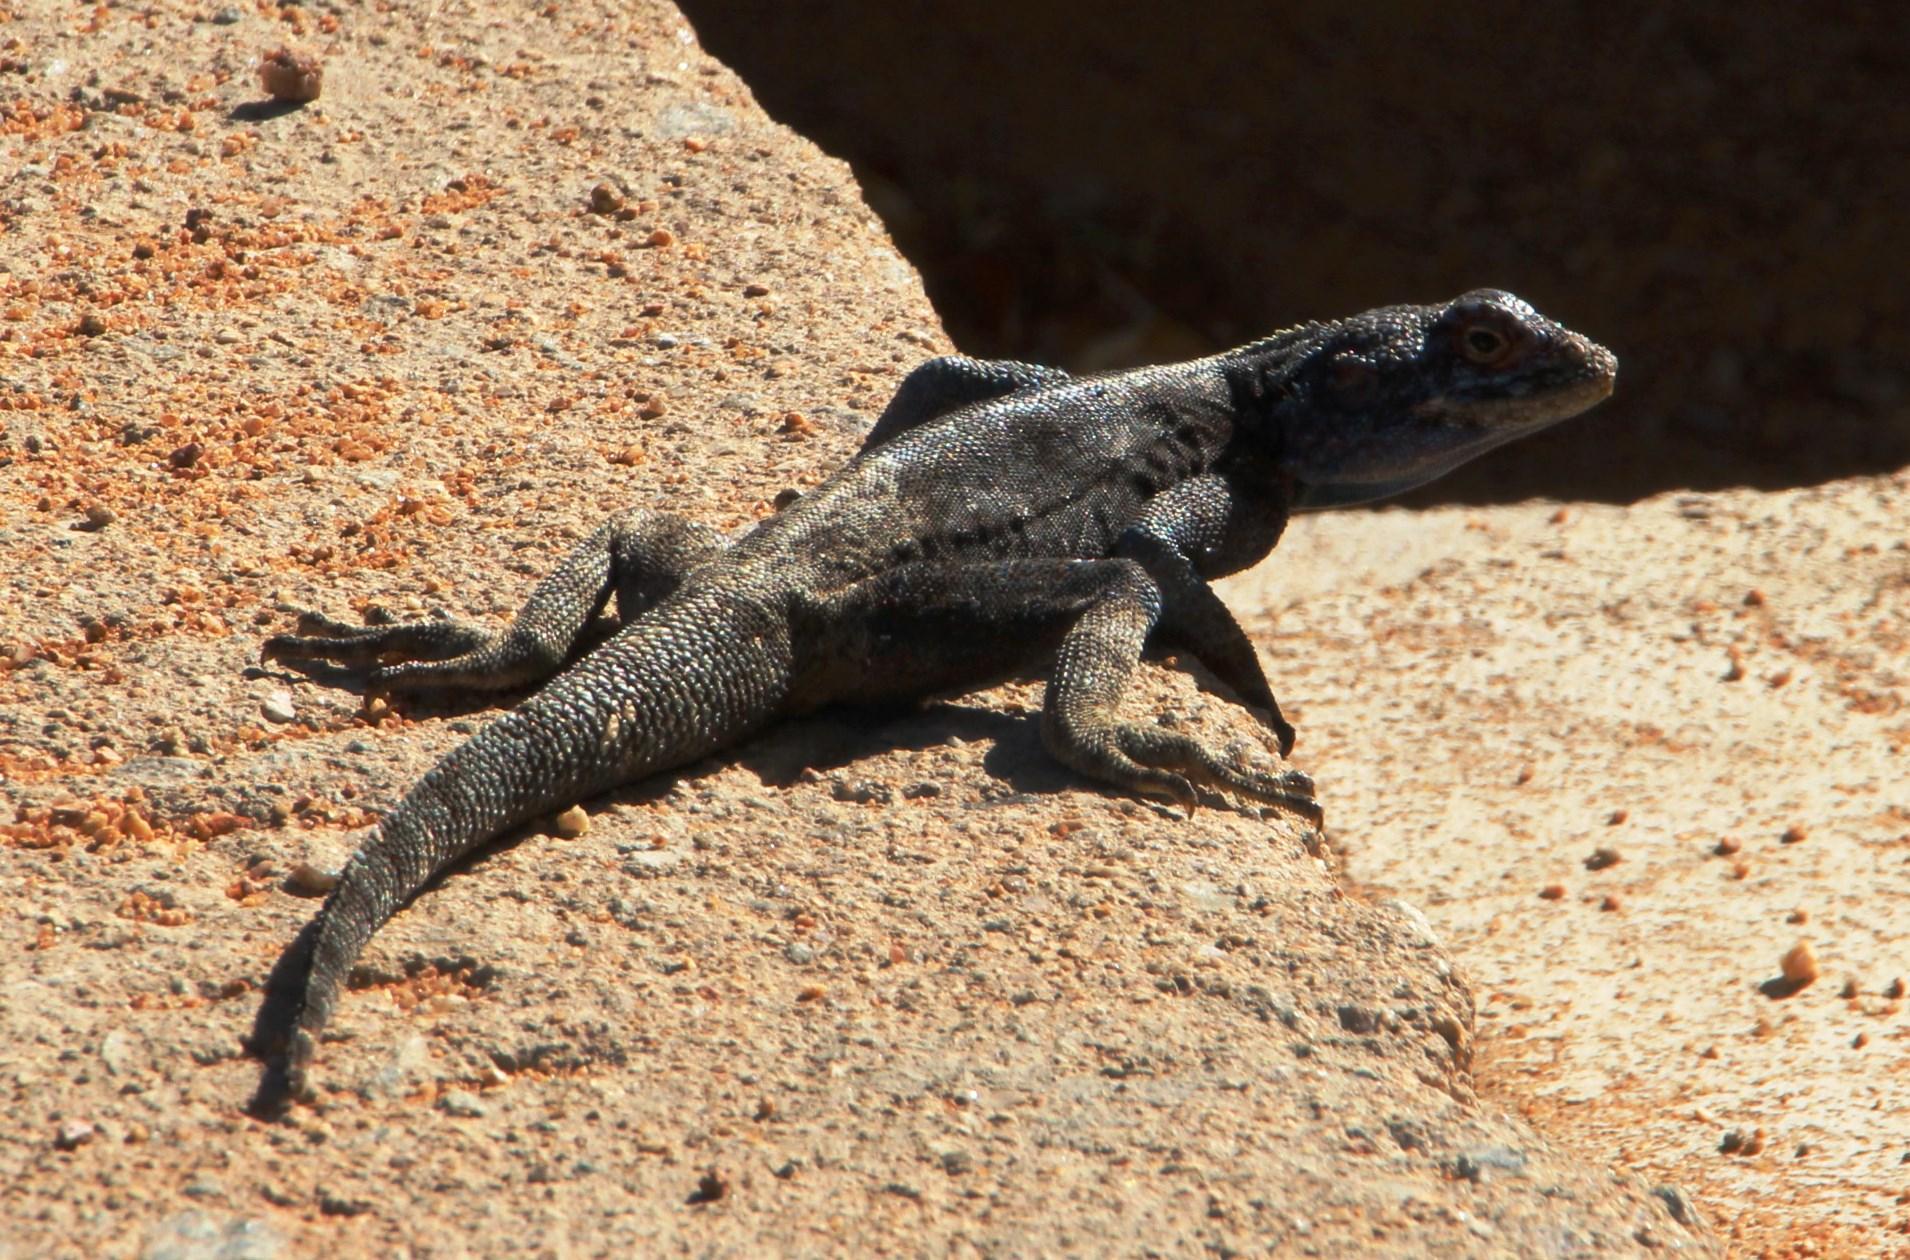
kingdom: Animalia
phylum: Chordata
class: Squamata
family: Agamidae
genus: Agama
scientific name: Agama atra
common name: Southern african rock agama
